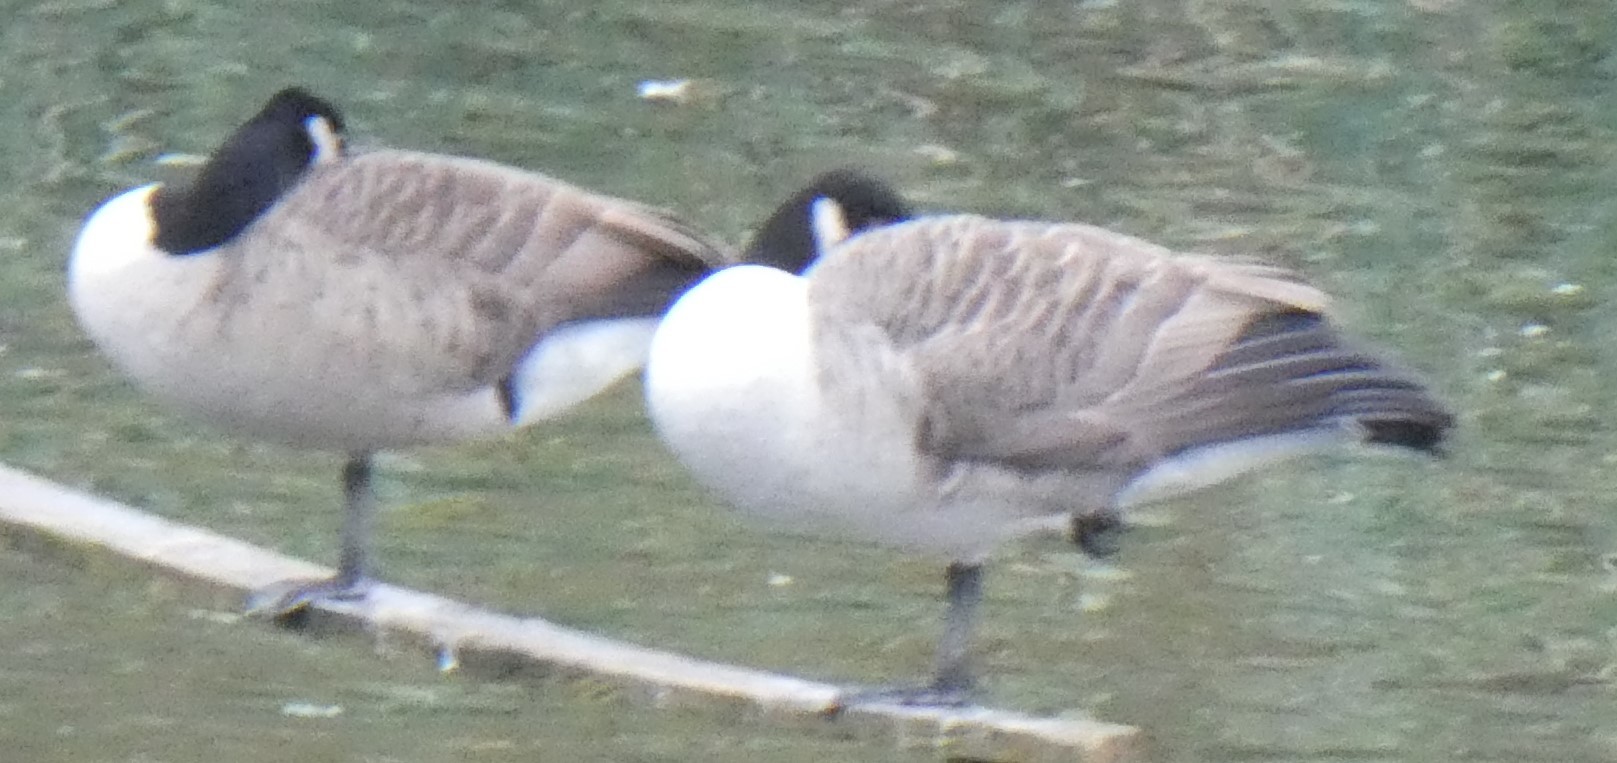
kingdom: Animalia
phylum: Chordata
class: Aves
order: Anseriformes
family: Anatidae
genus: Branta
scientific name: Branta canadensis
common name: Canada goose
